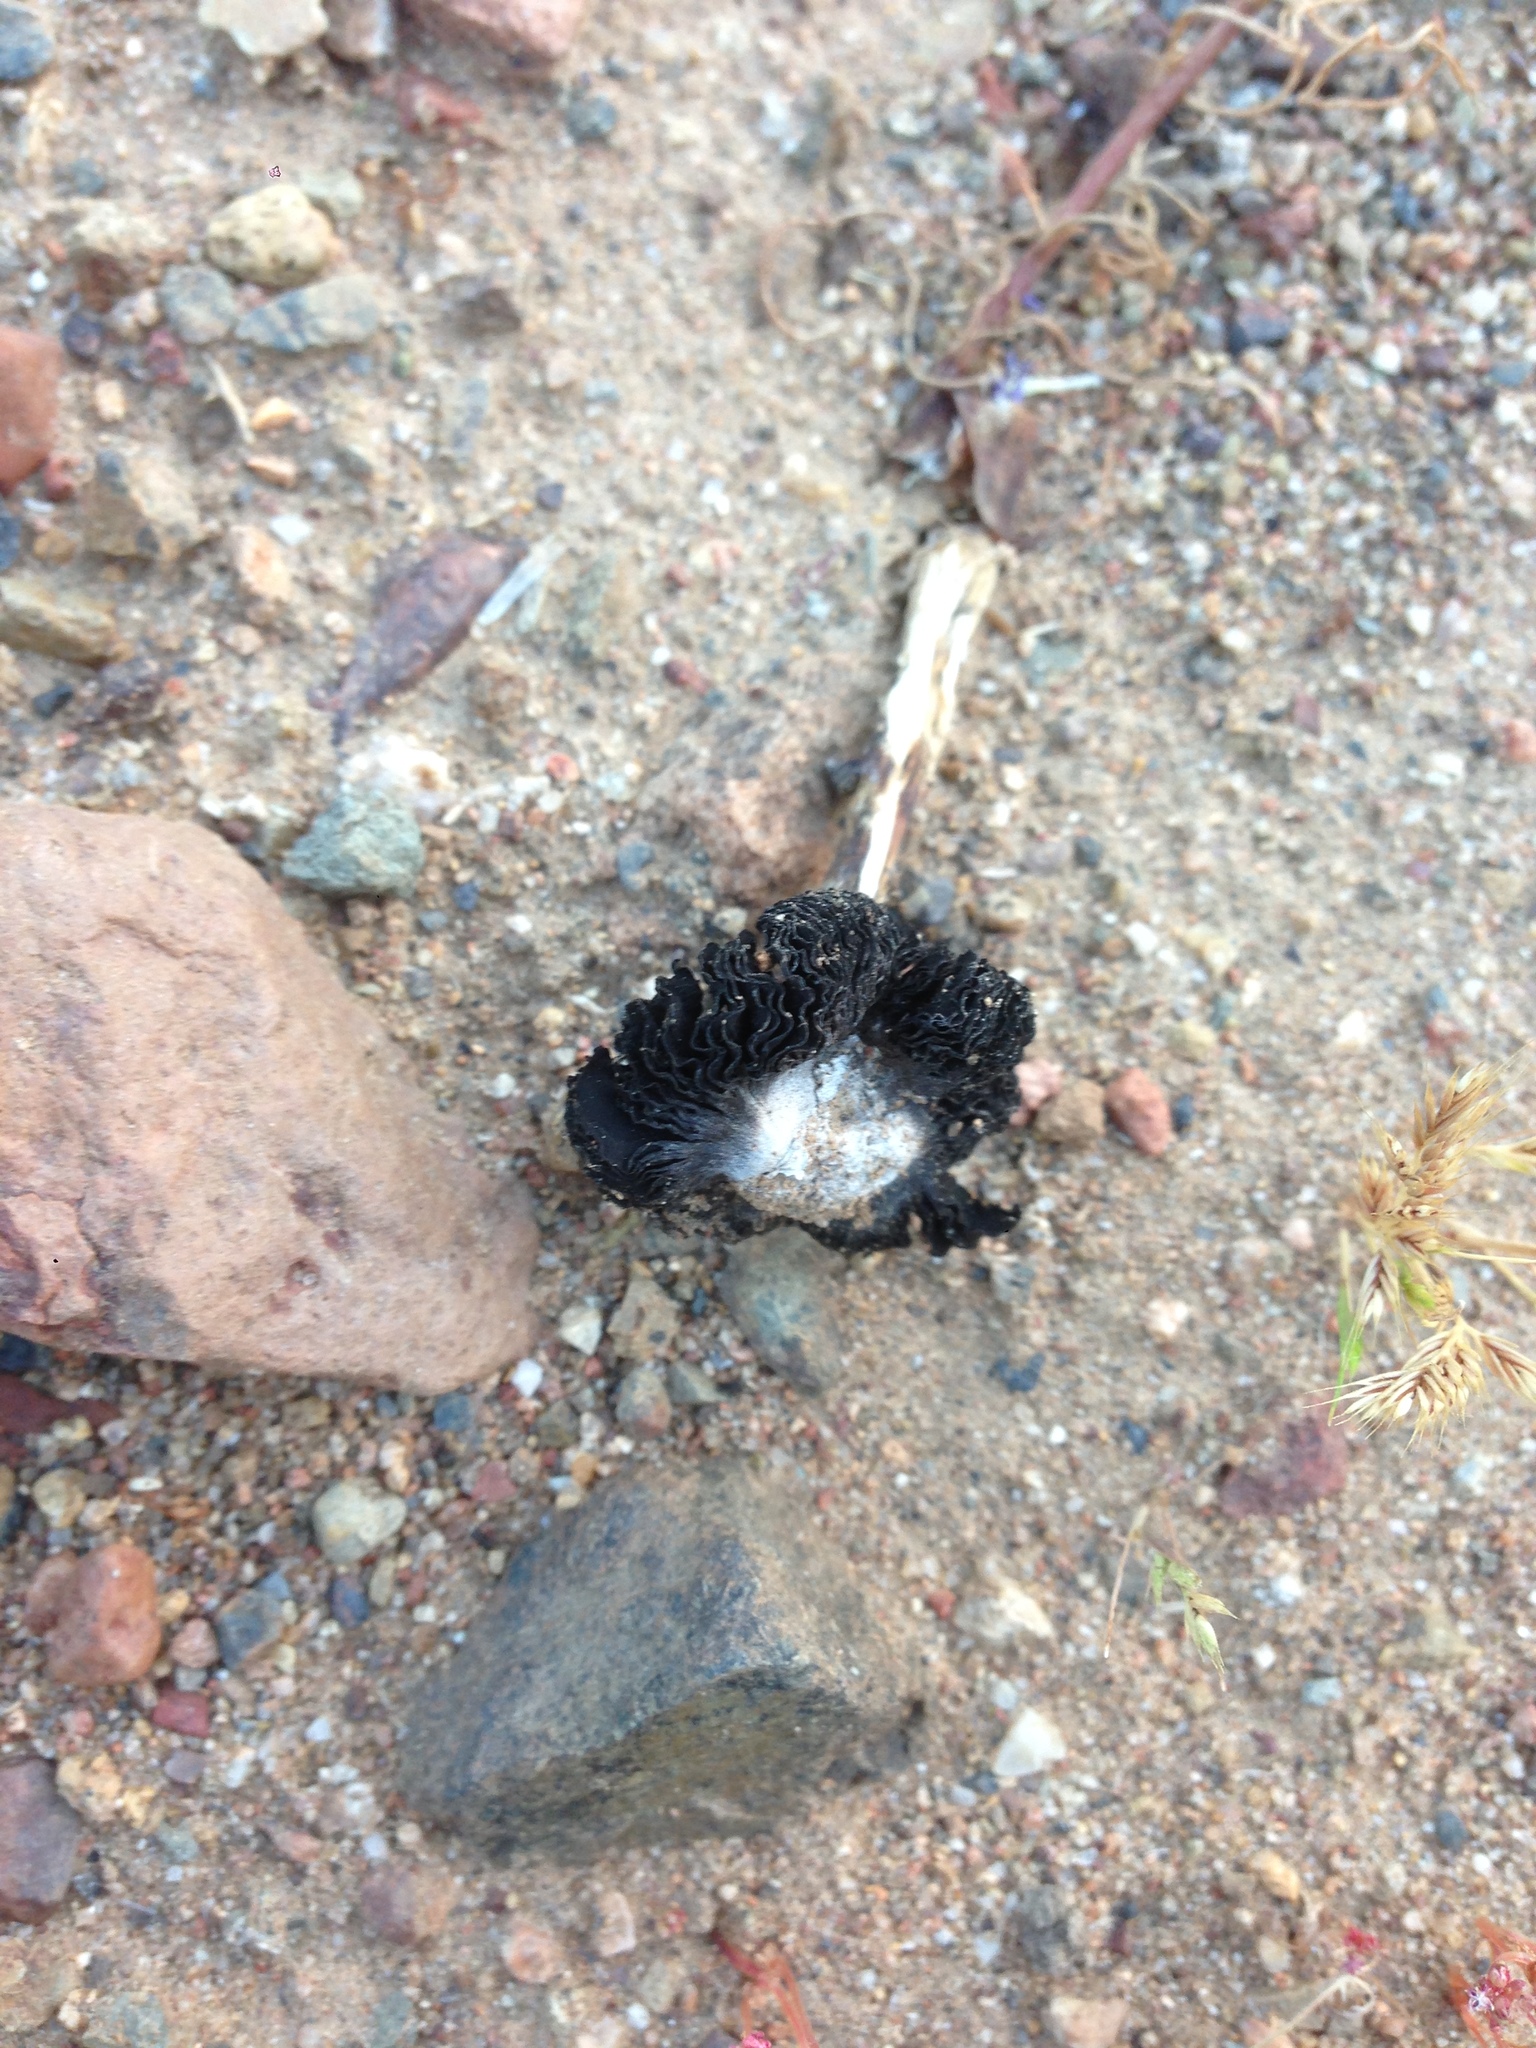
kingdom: Fungi
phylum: Basidiomycota
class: Agaricomycetes
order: Agaricales
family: Agaricaceae
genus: Montagnea
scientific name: Montagnea arenaria
